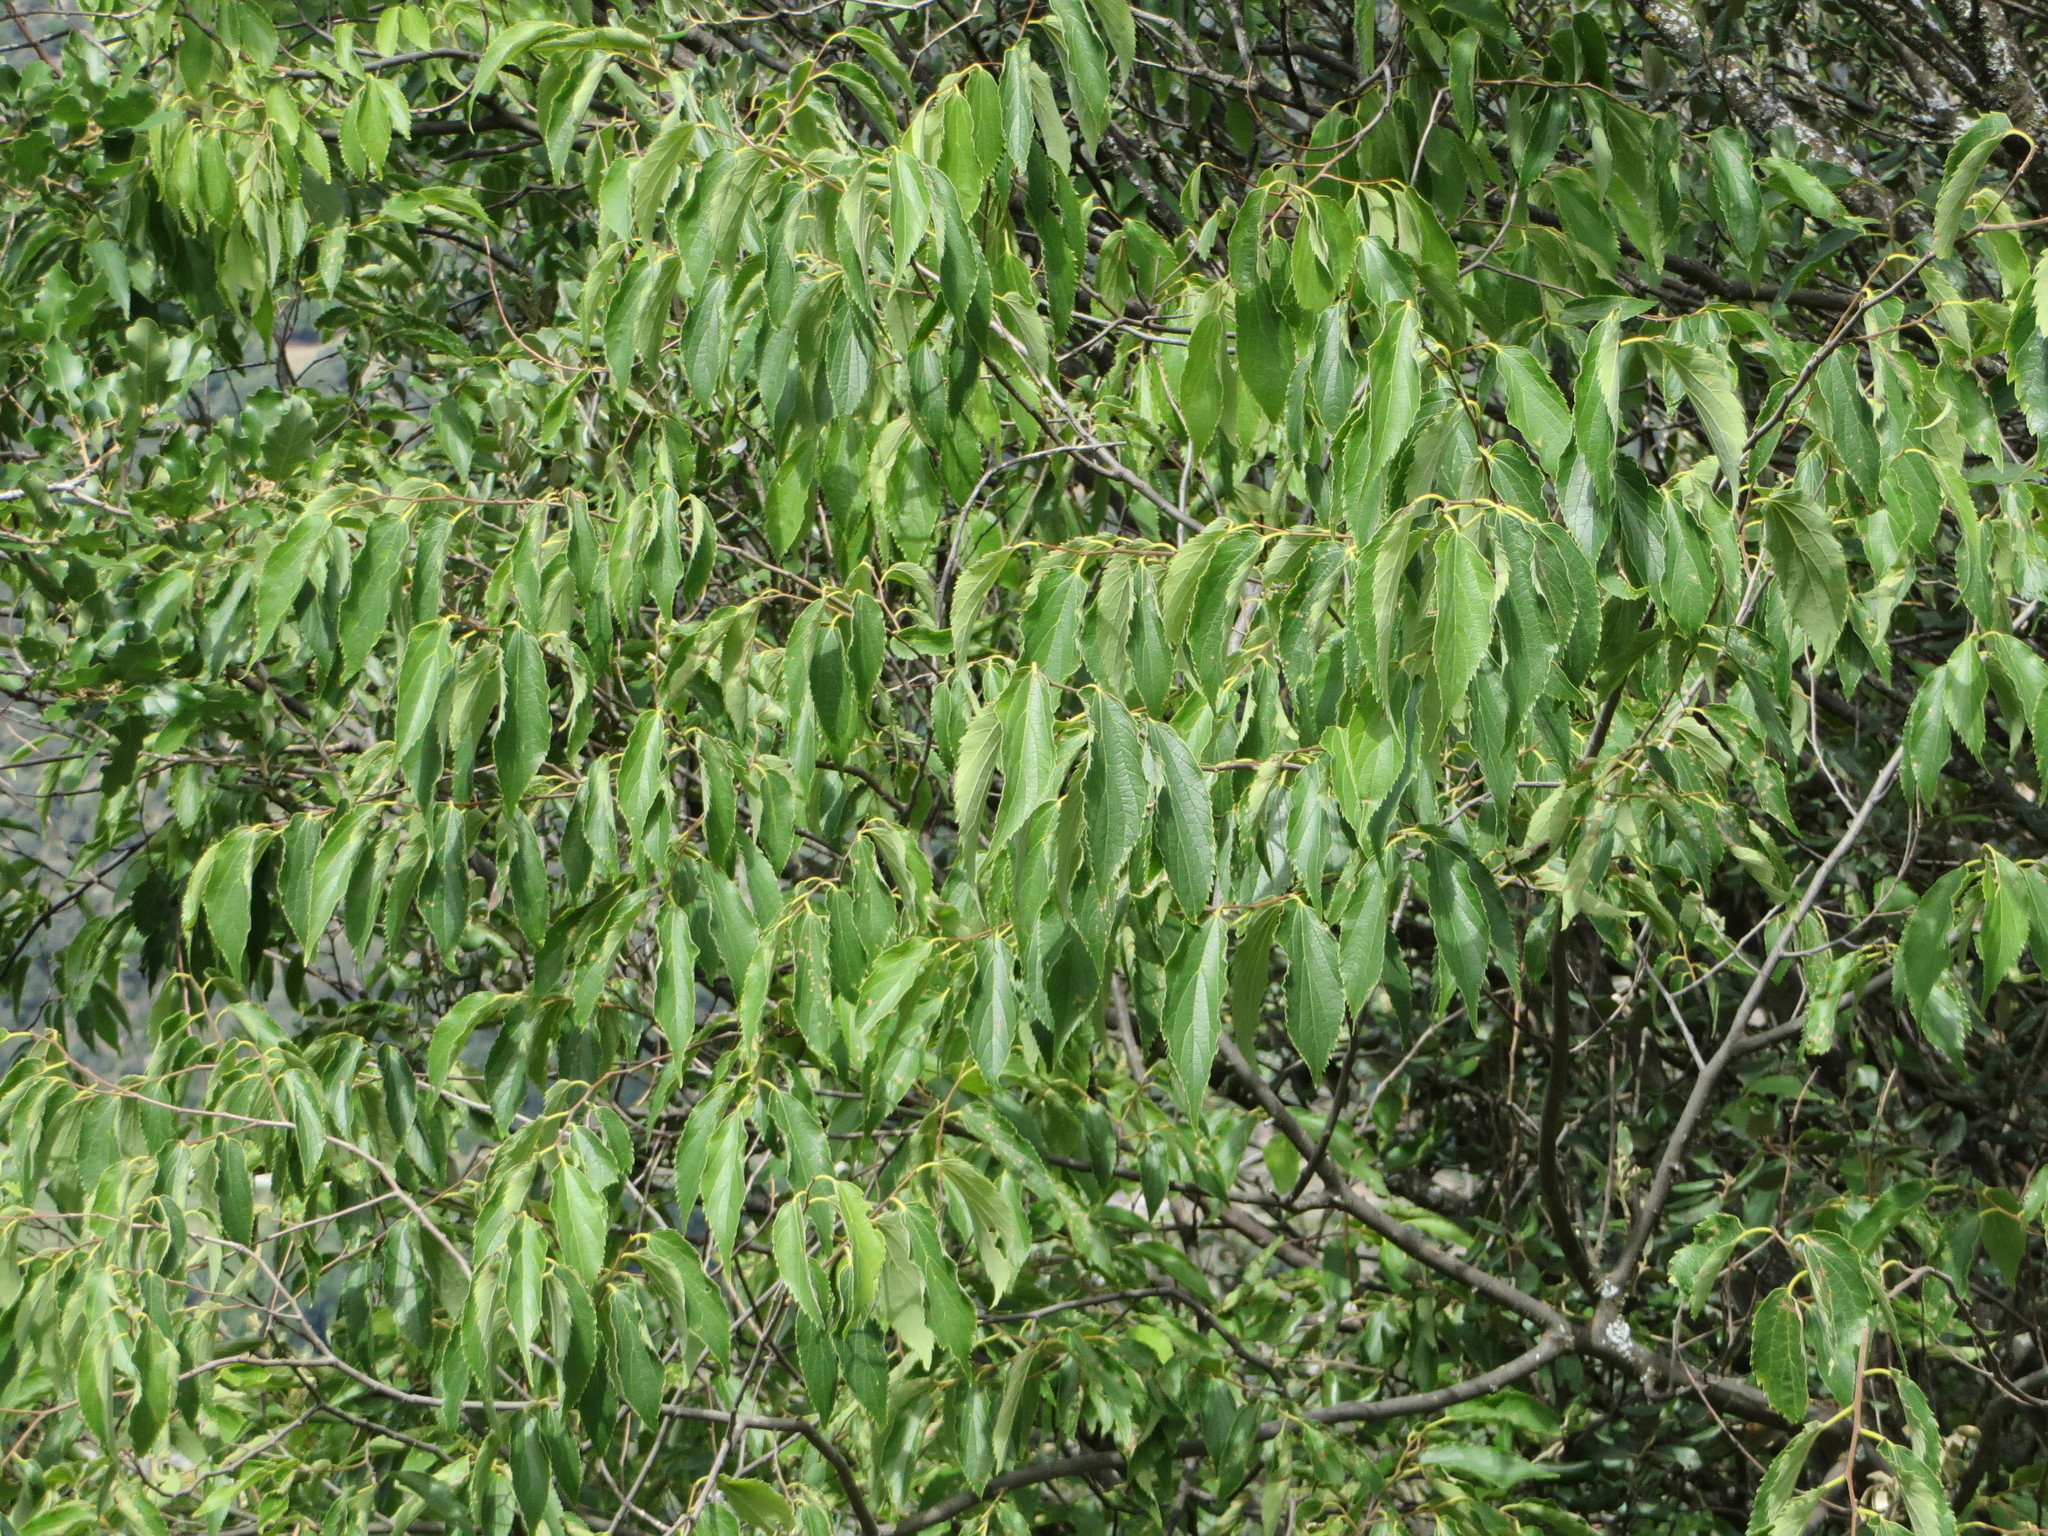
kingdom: Plantae
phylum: Tracheophyta
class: Magnoliopsida
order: Rosales
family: Cannabaceae
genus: Celtis
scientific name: Celtis australis
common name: European hackberry
